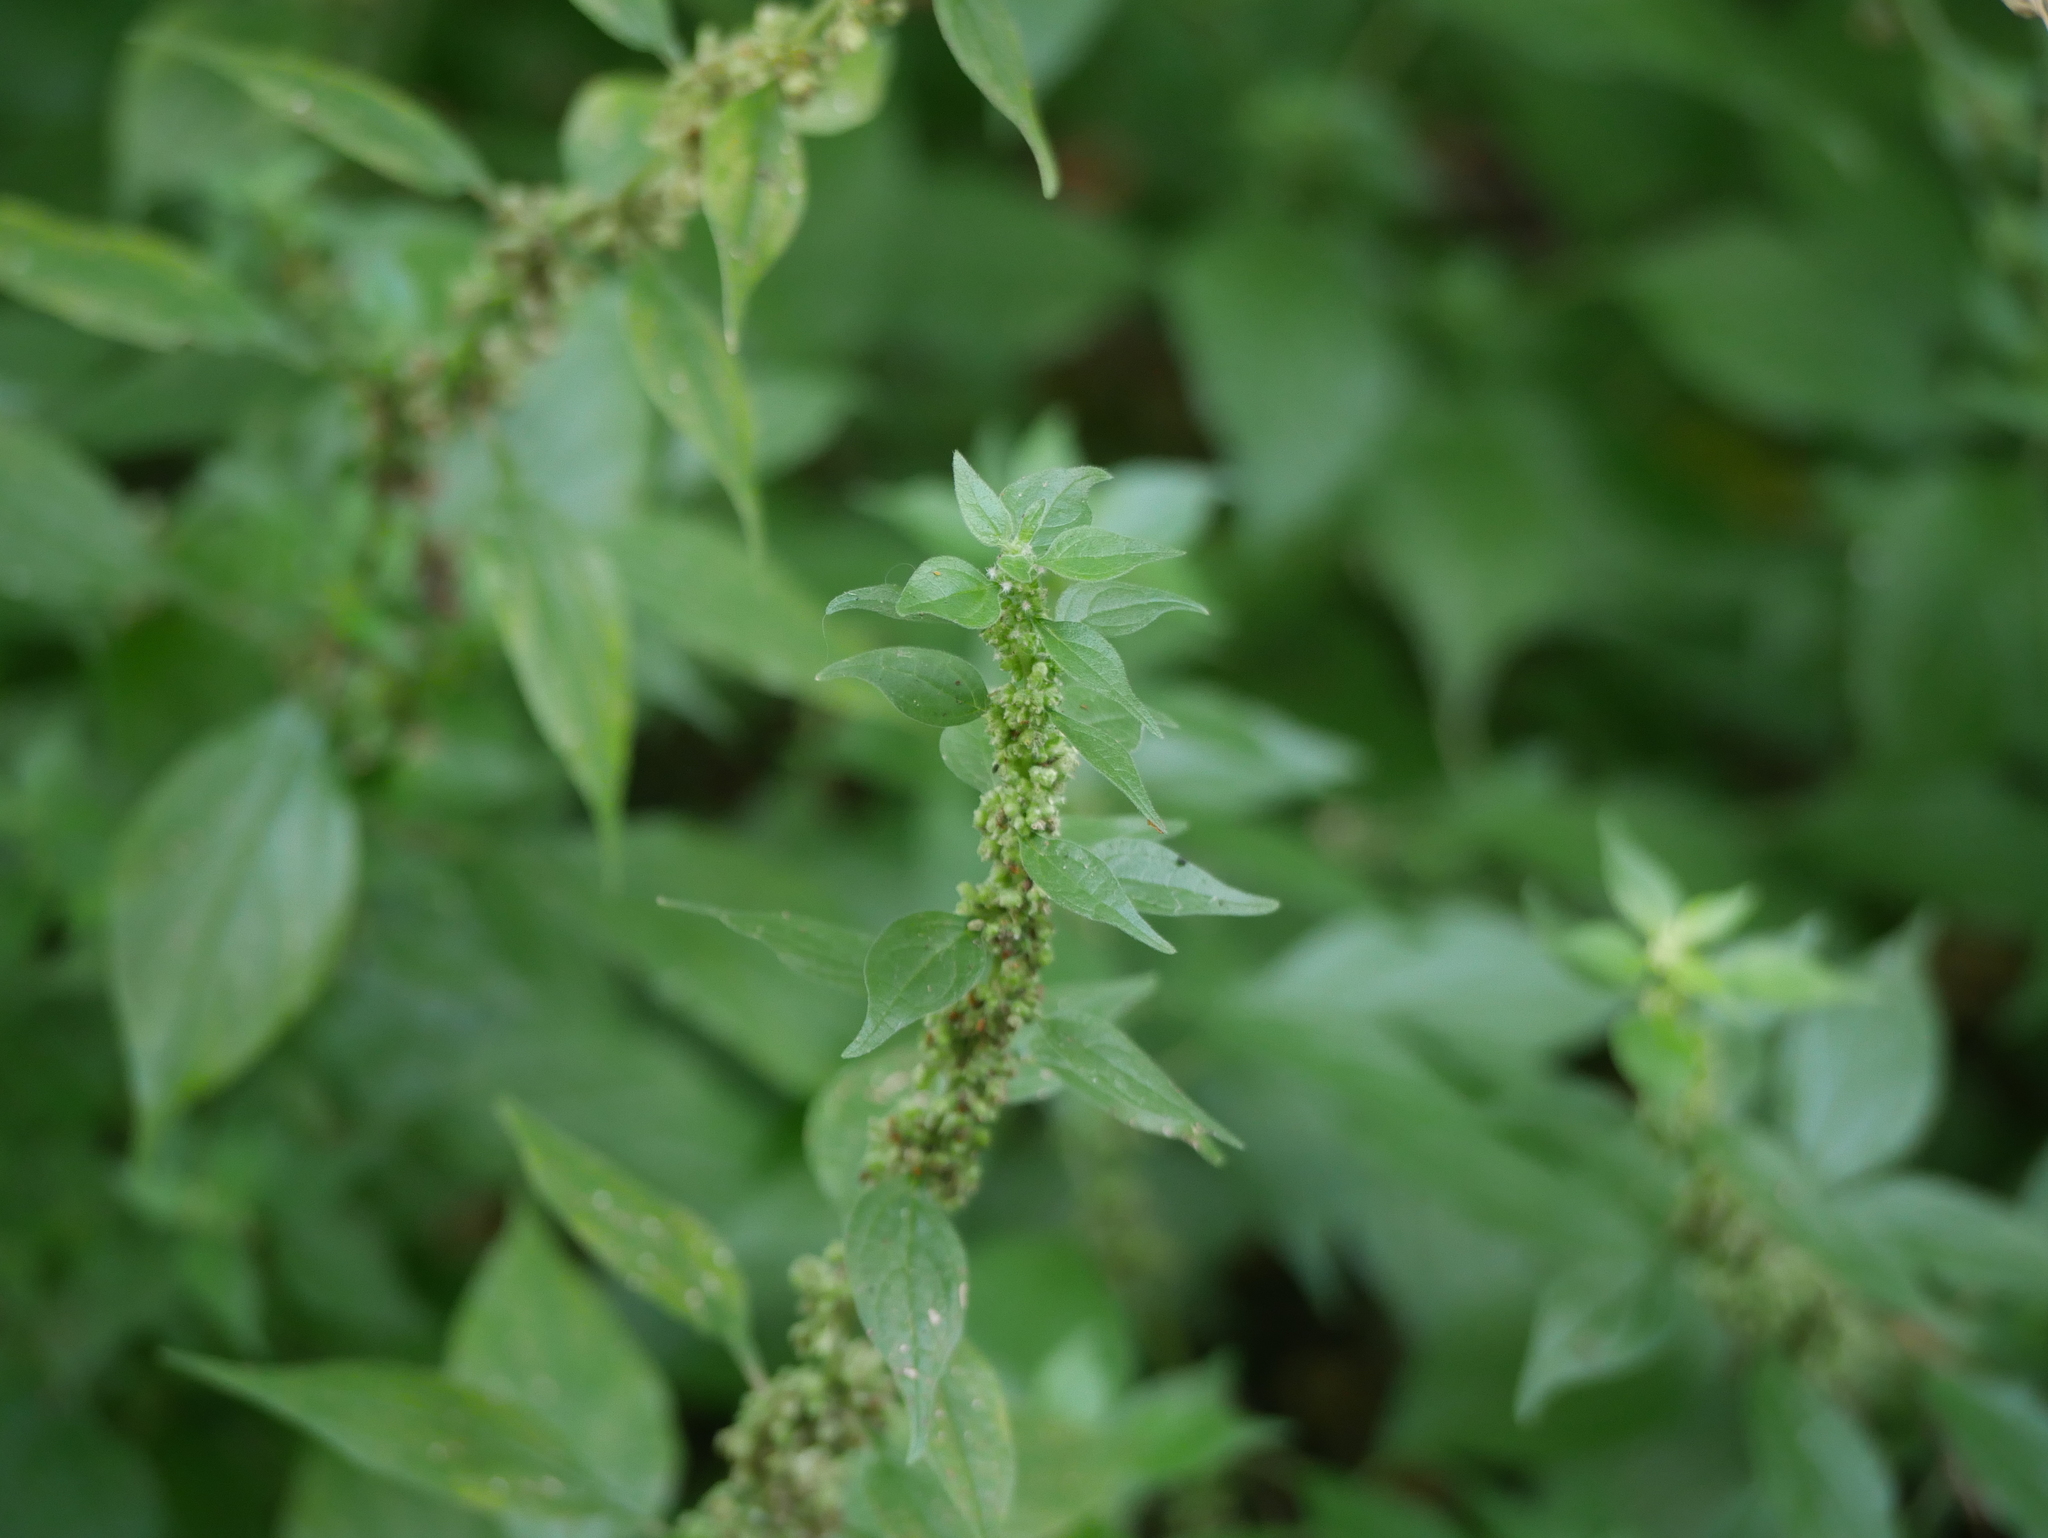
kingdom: Plantae
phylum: Tracheophyta
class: Magnoliopsida
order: Rosales
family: Urticaceae
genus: Parietaria
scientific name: Parietaria officinalis
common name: Eastern pellitory-of-the-wall
